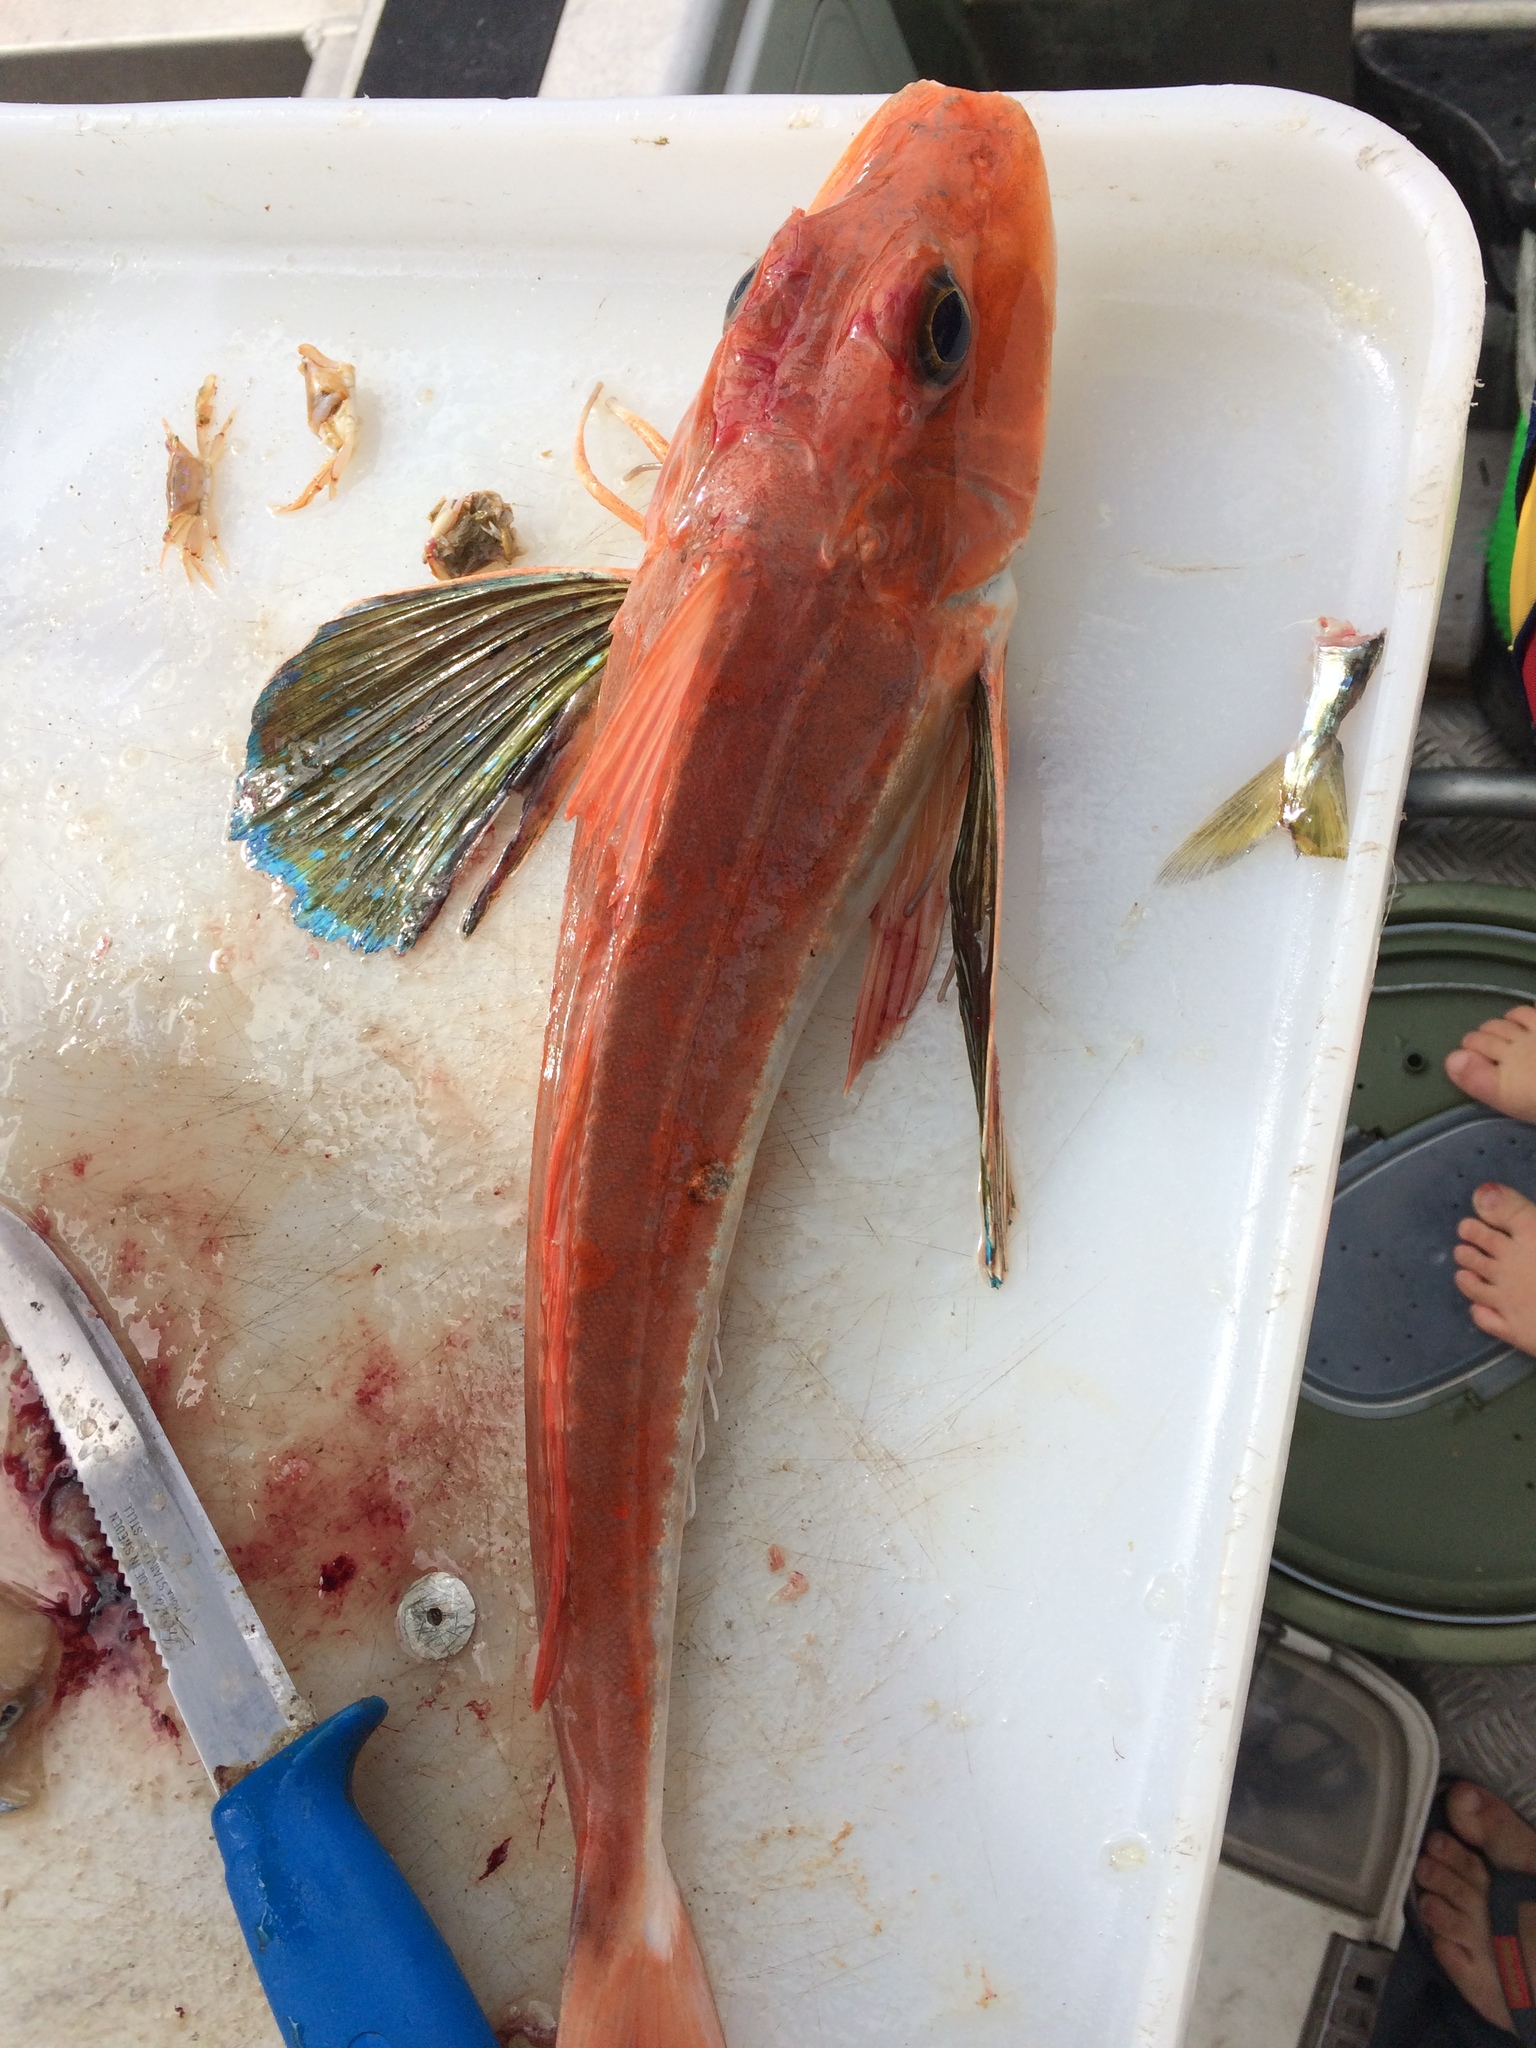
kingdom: Animalia
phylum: Chordata
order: Scorpaeniformes
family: Triglidae
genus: Chelidonichthys
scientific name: Chelidonichthys kumu
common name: Bluefin gurnard
